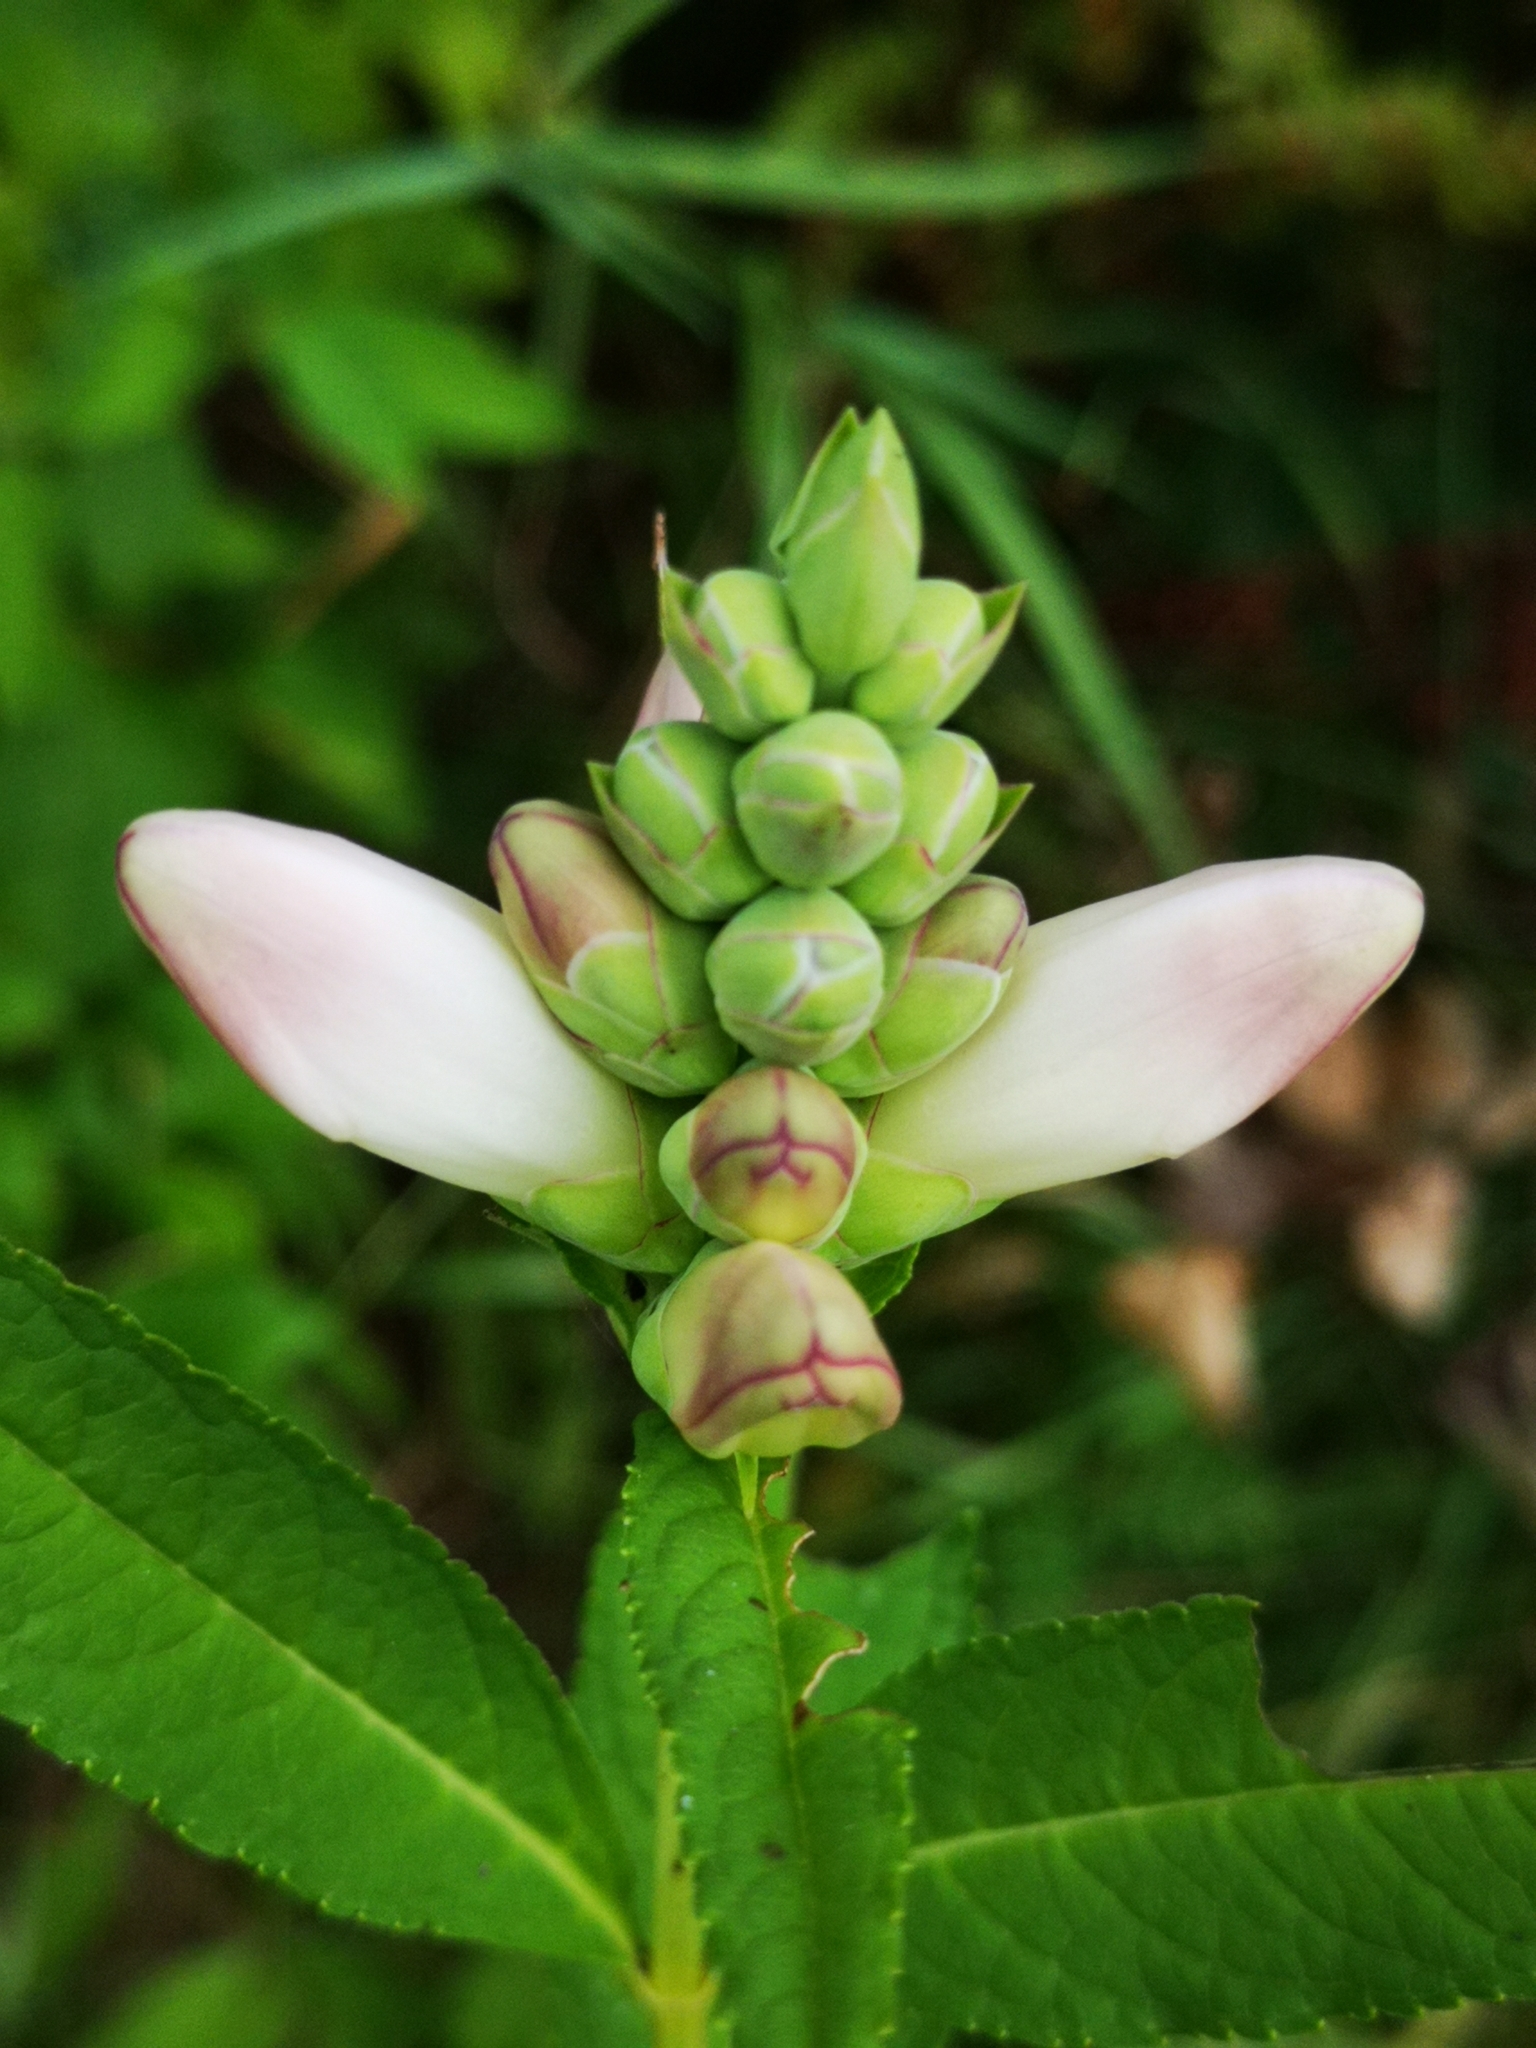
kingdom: Plantae
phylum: Tracheophyta
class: Magnoliopsida
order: Lamiales
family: Plantaginaceae
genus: Chelone
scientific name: Chelone glabra
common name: Snakehead
